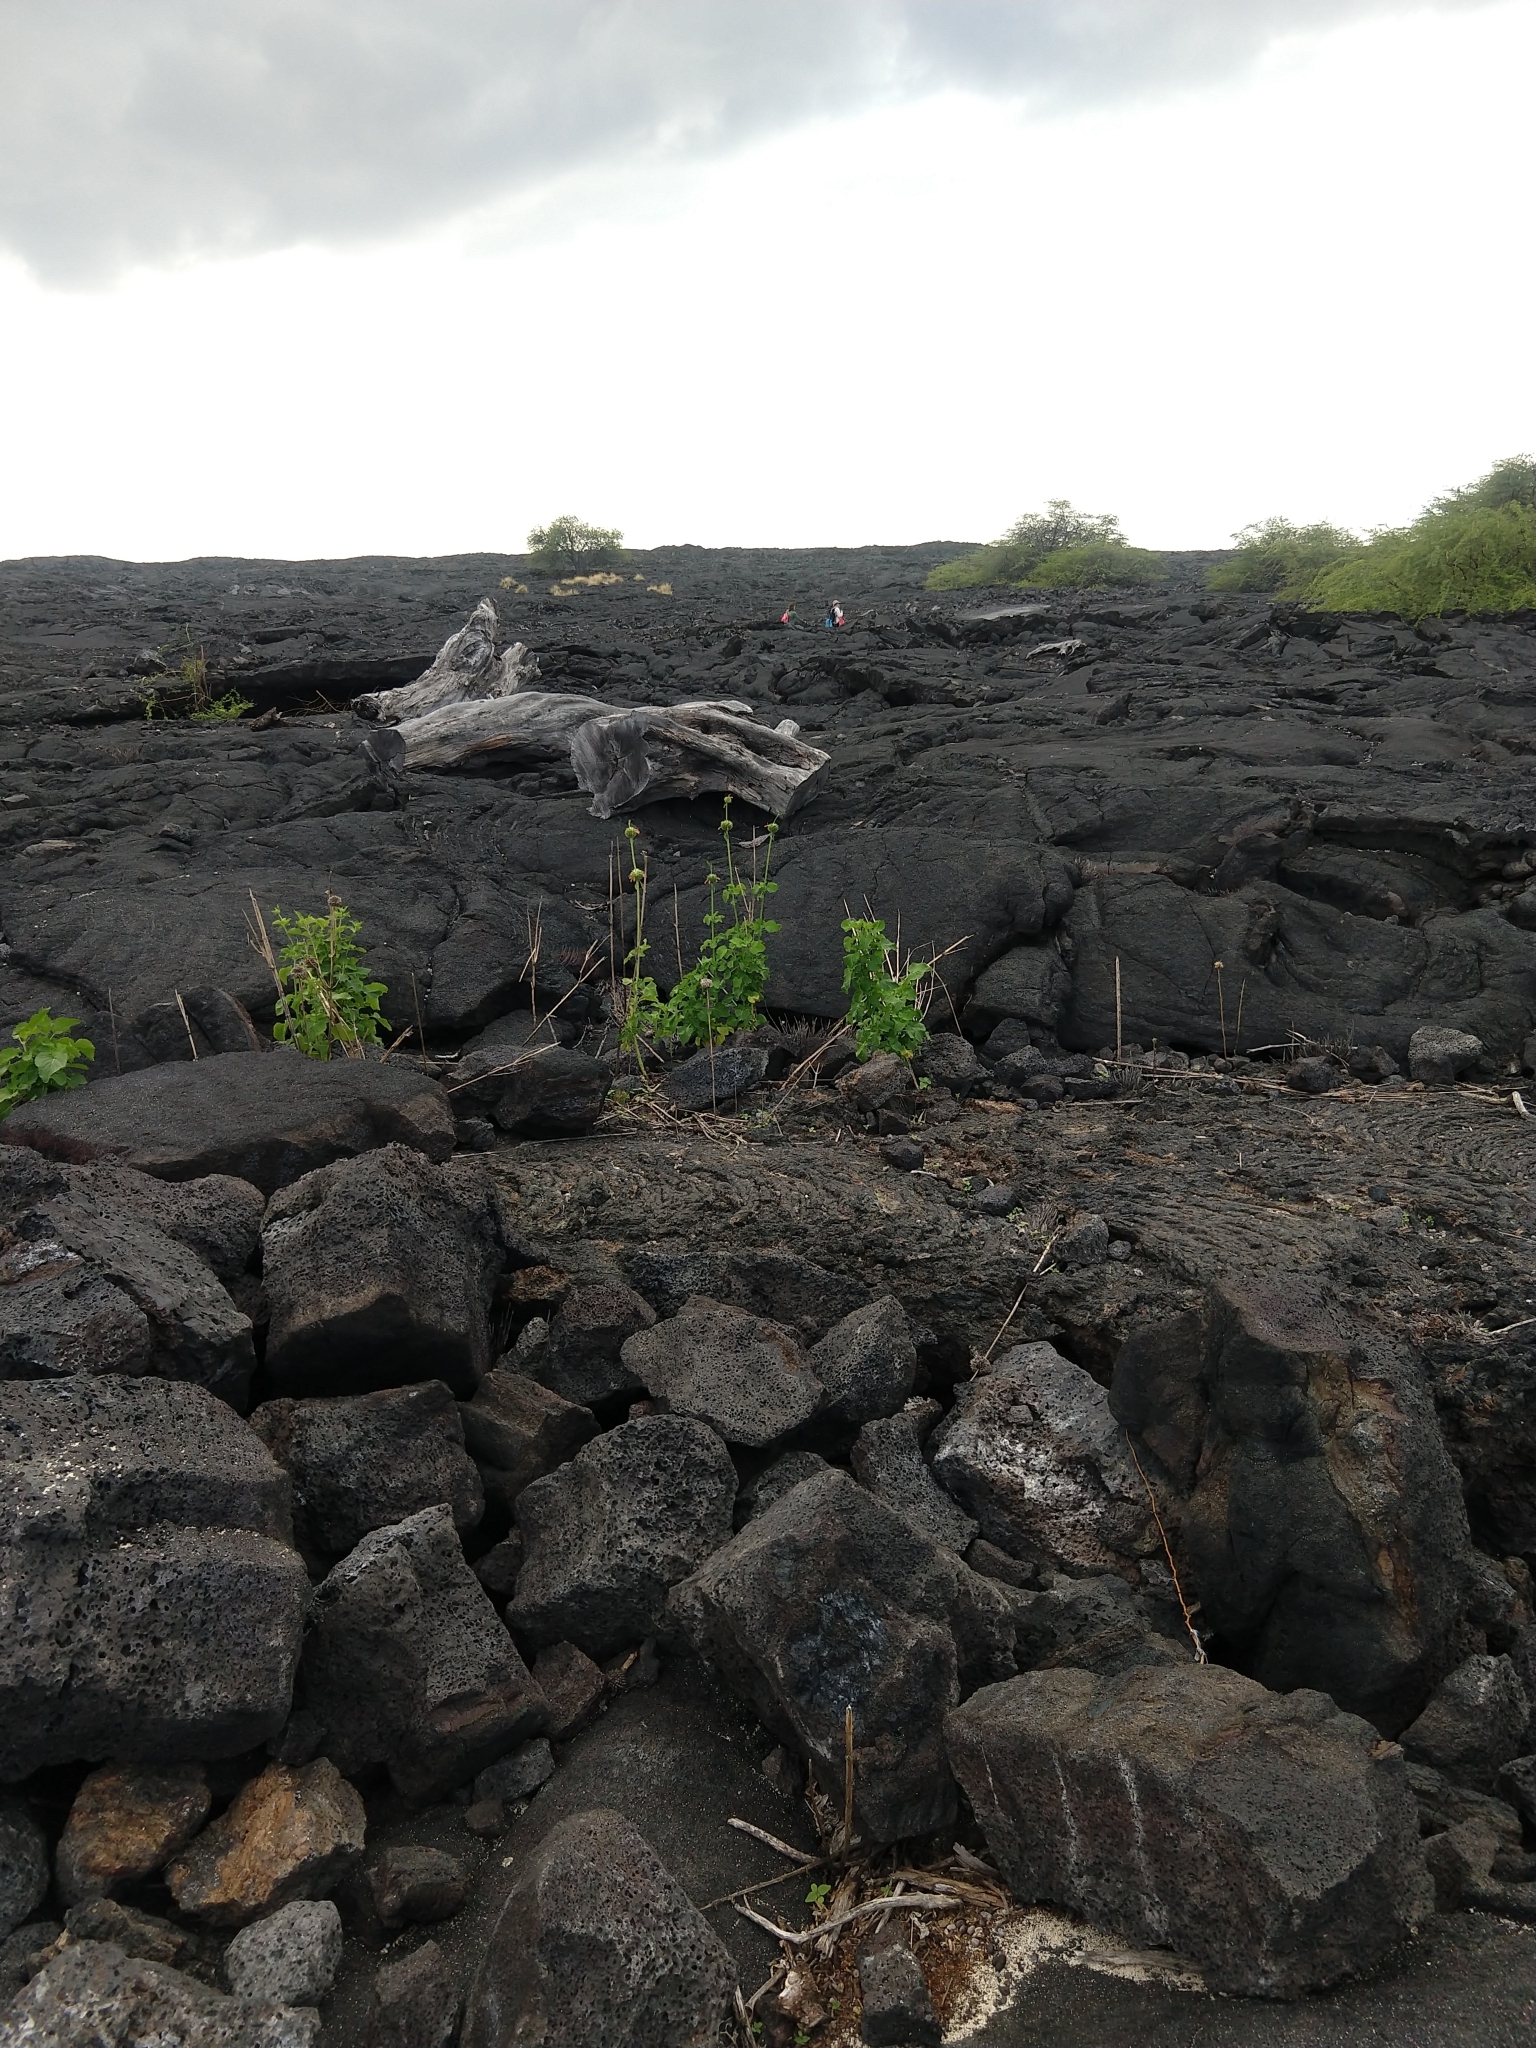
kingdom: Plantae
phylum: Tracheophyta
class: Magnoliopsida
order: Lamiales
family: Lamiaceae
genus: Leonotis
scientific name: Leonotis nepetifolia
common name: Christmas candlestick
